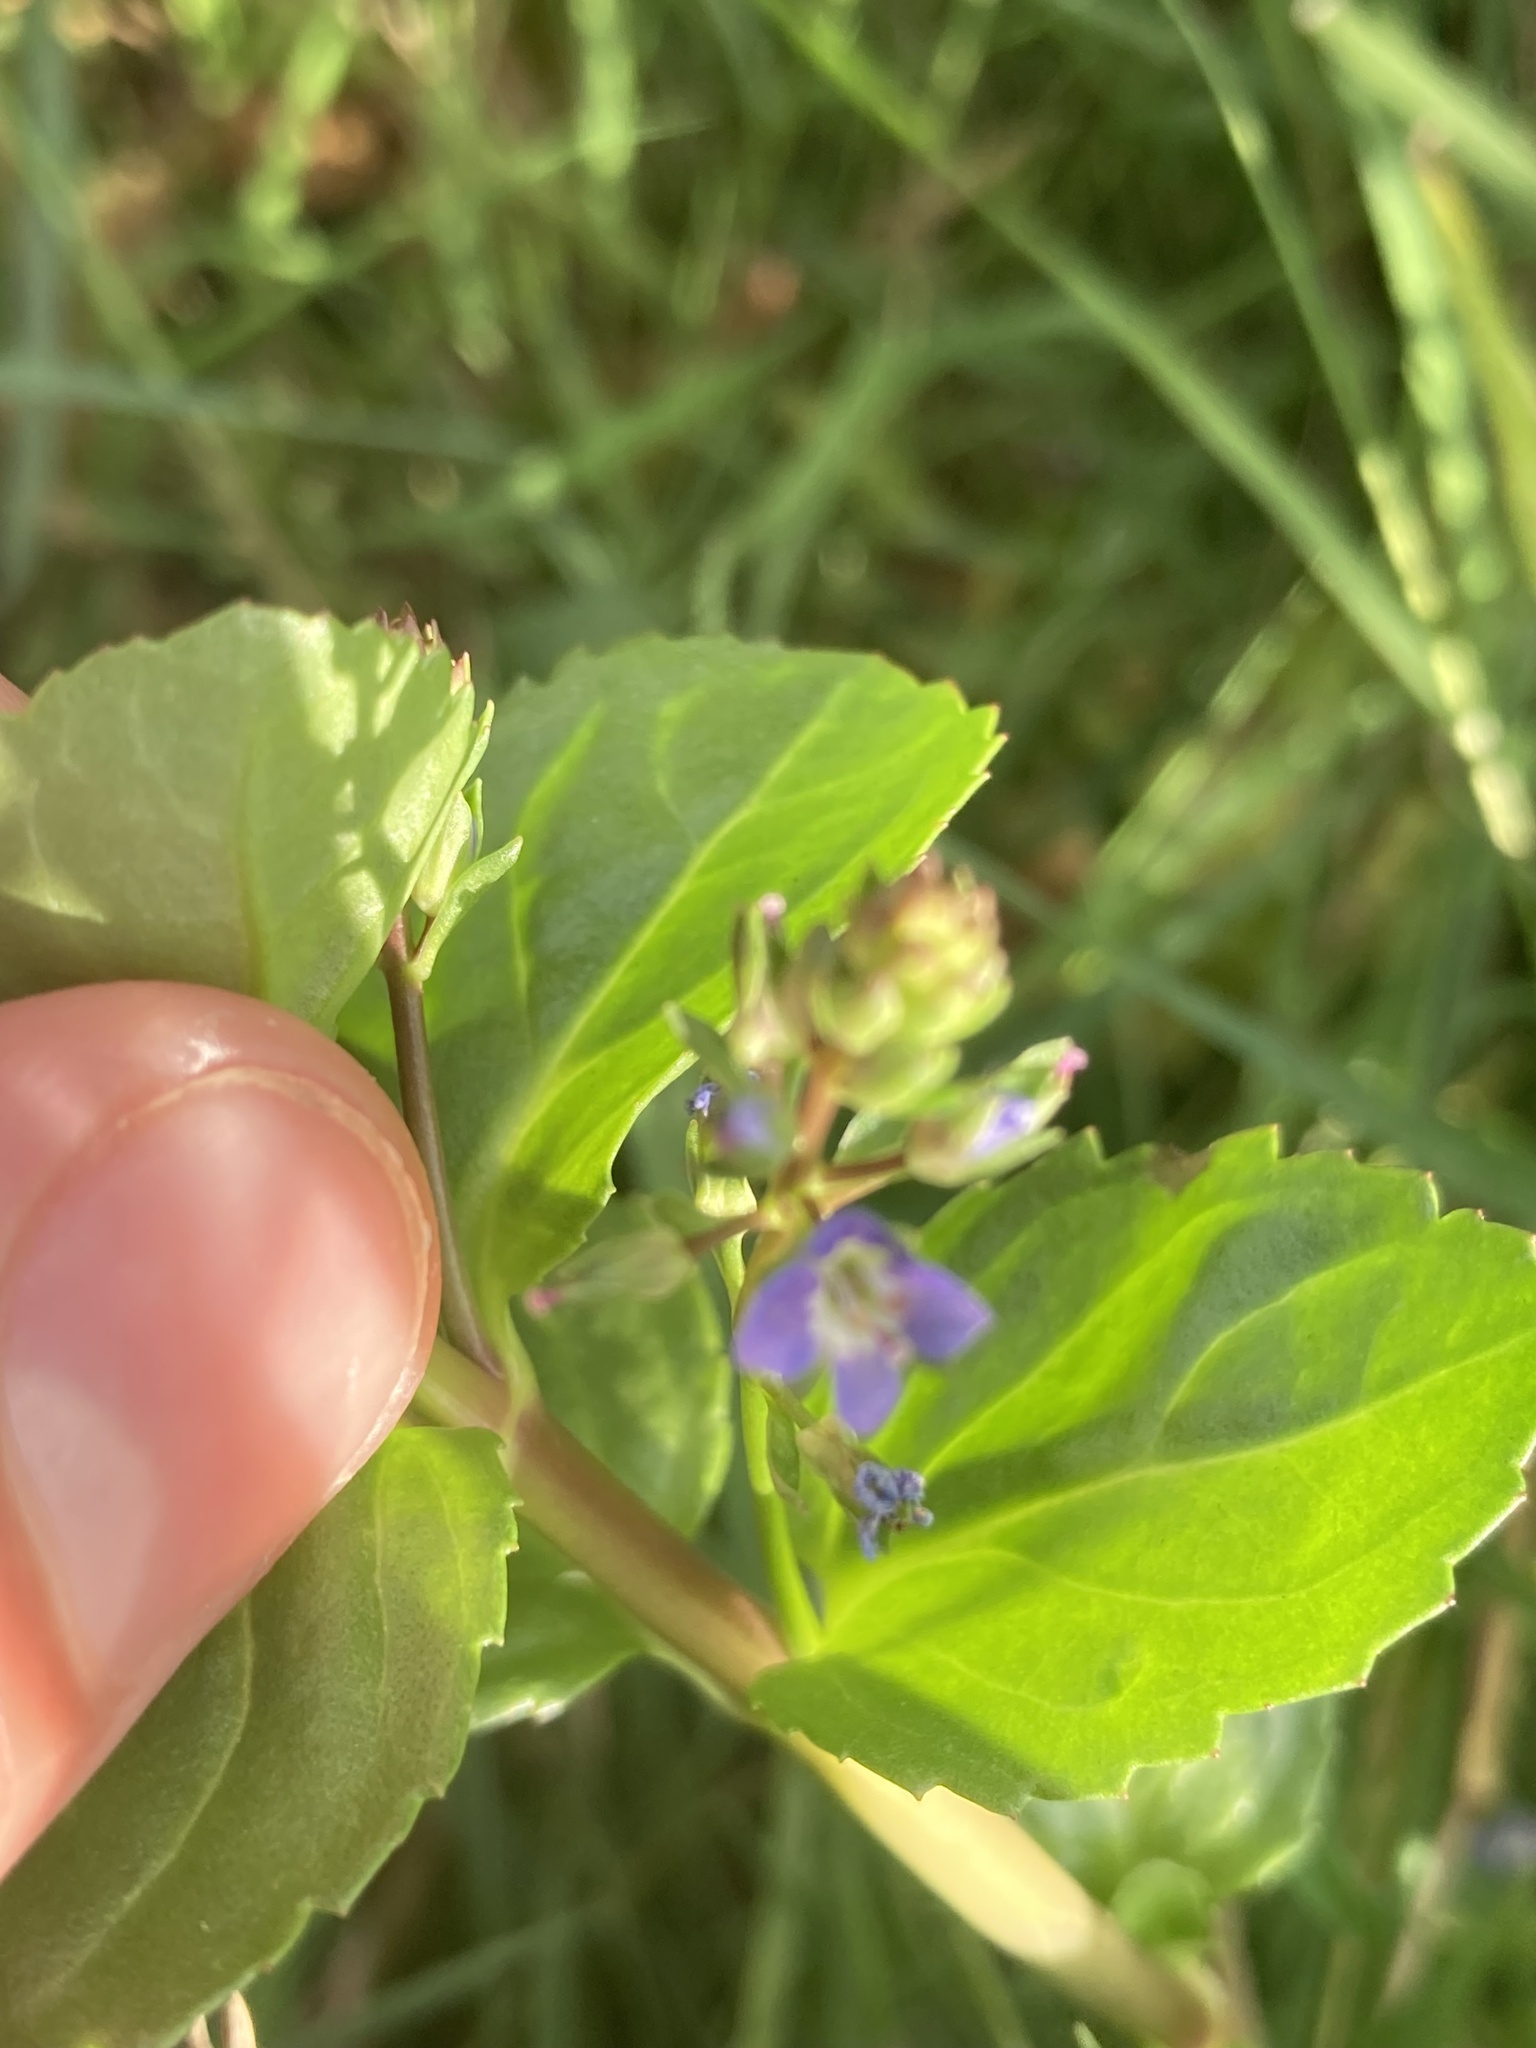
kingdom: Plantae
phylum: Tracheophyta
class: Magnoliopsida
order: Lamiales
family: Plantaginaceae
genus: Veronica
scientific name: Veronica beccabunga
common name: Brooklime
